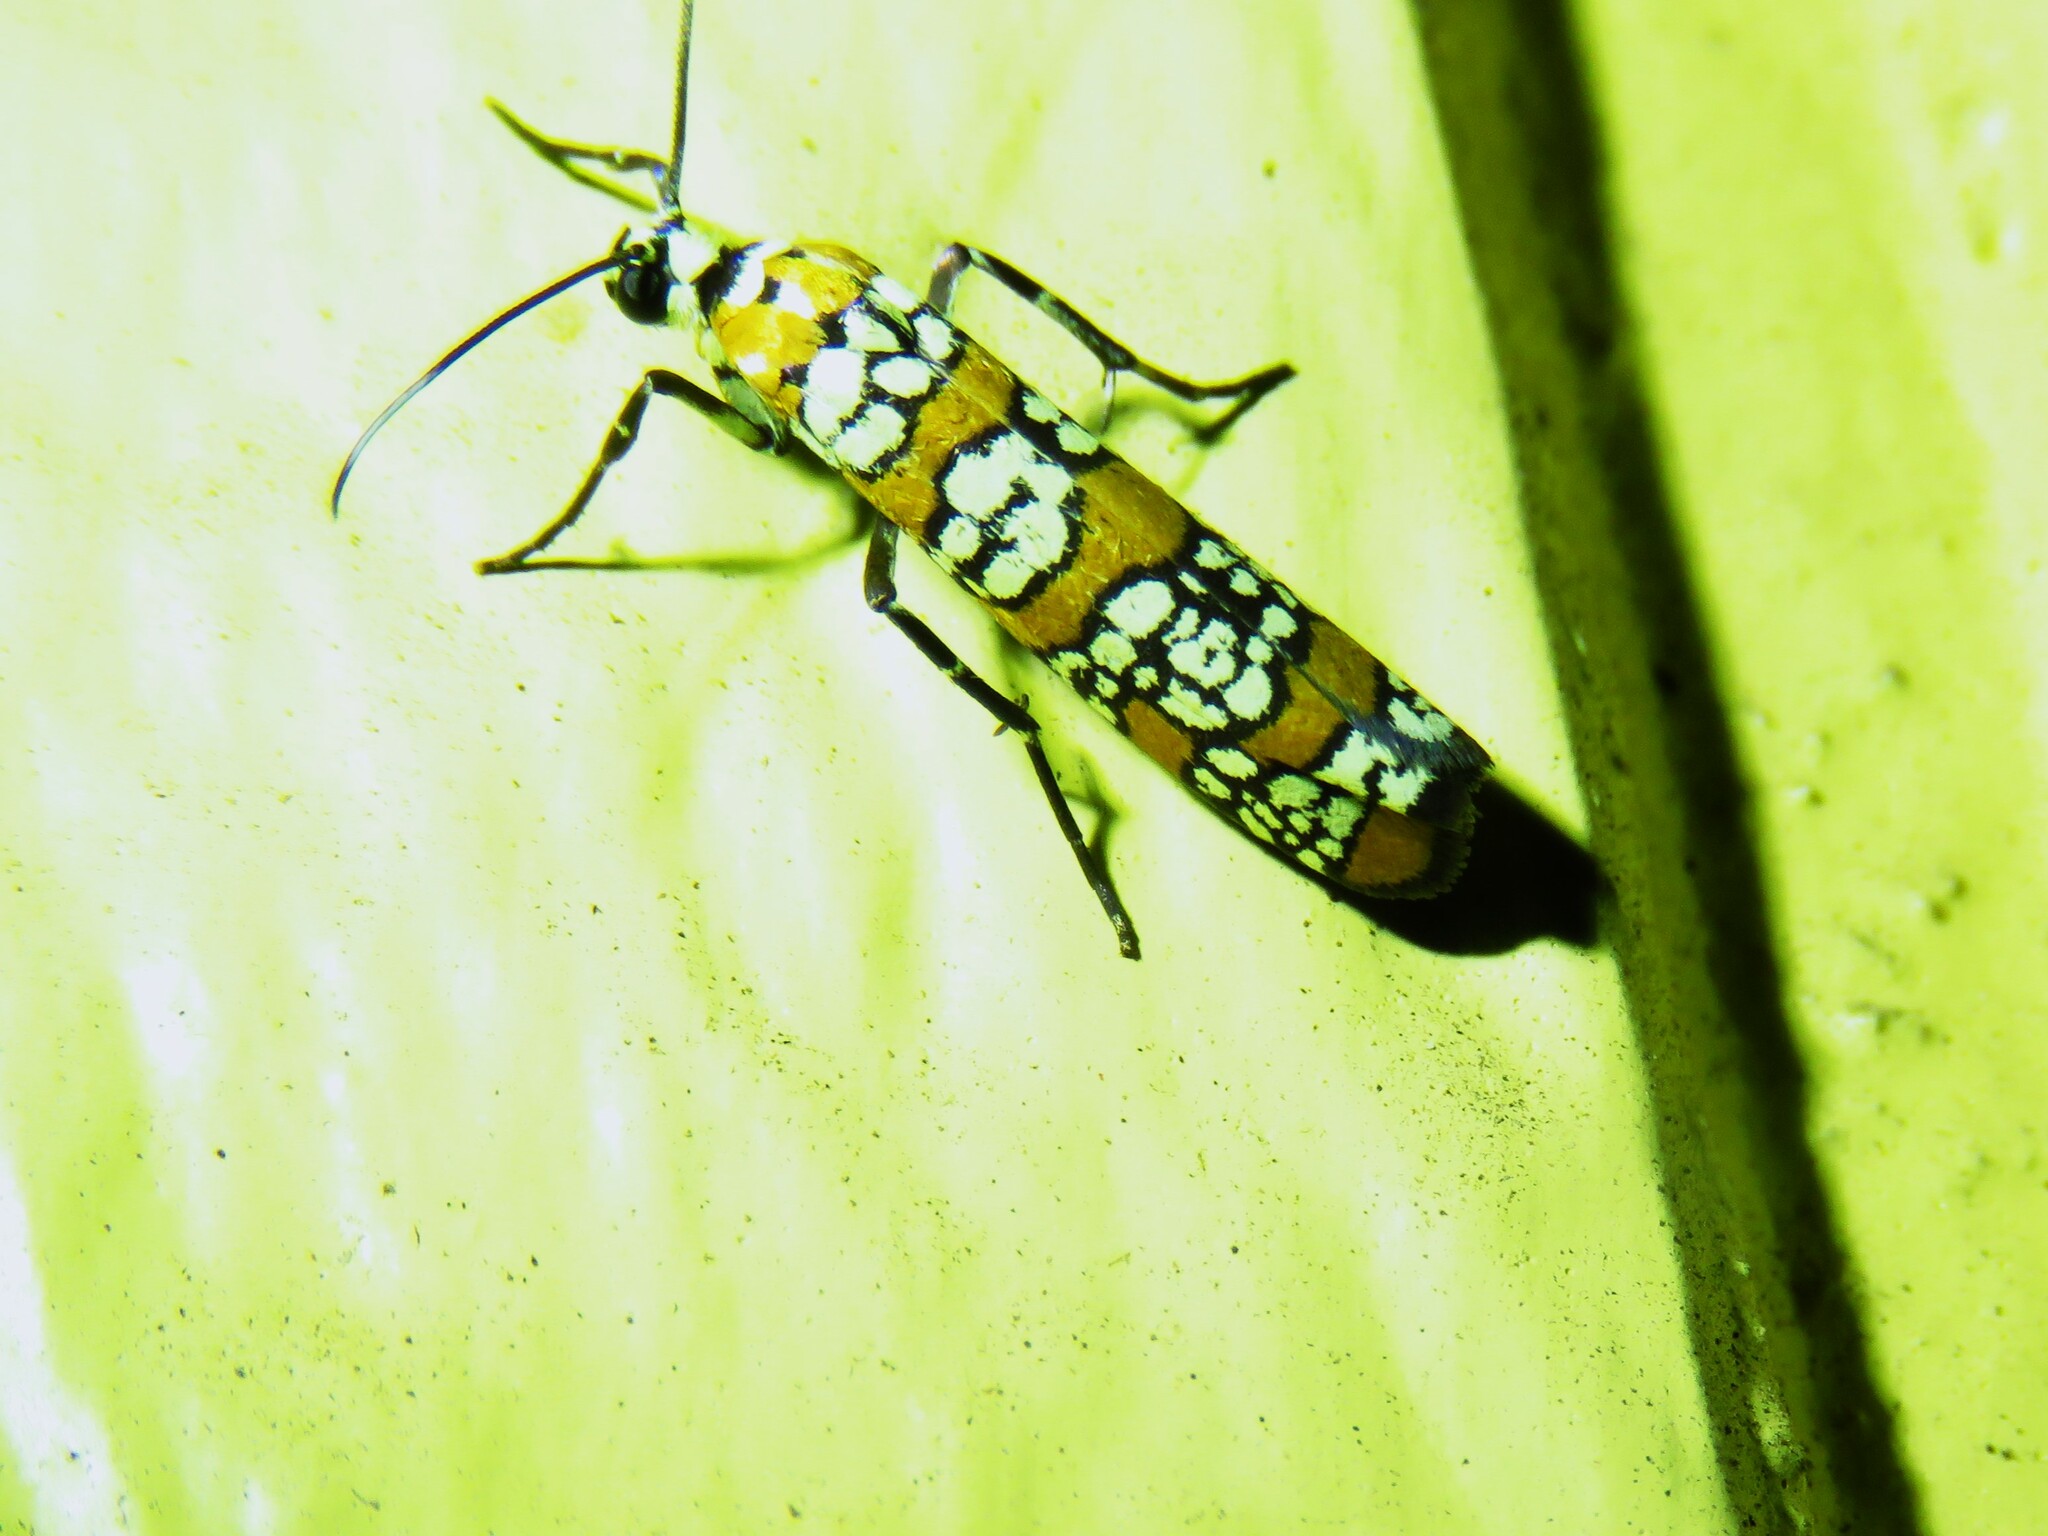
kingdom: Animalia
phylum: Arthropoda
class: Insecta
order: Lepidoptera
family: Attevidae
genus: Atteva
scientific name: Atteva punctella
